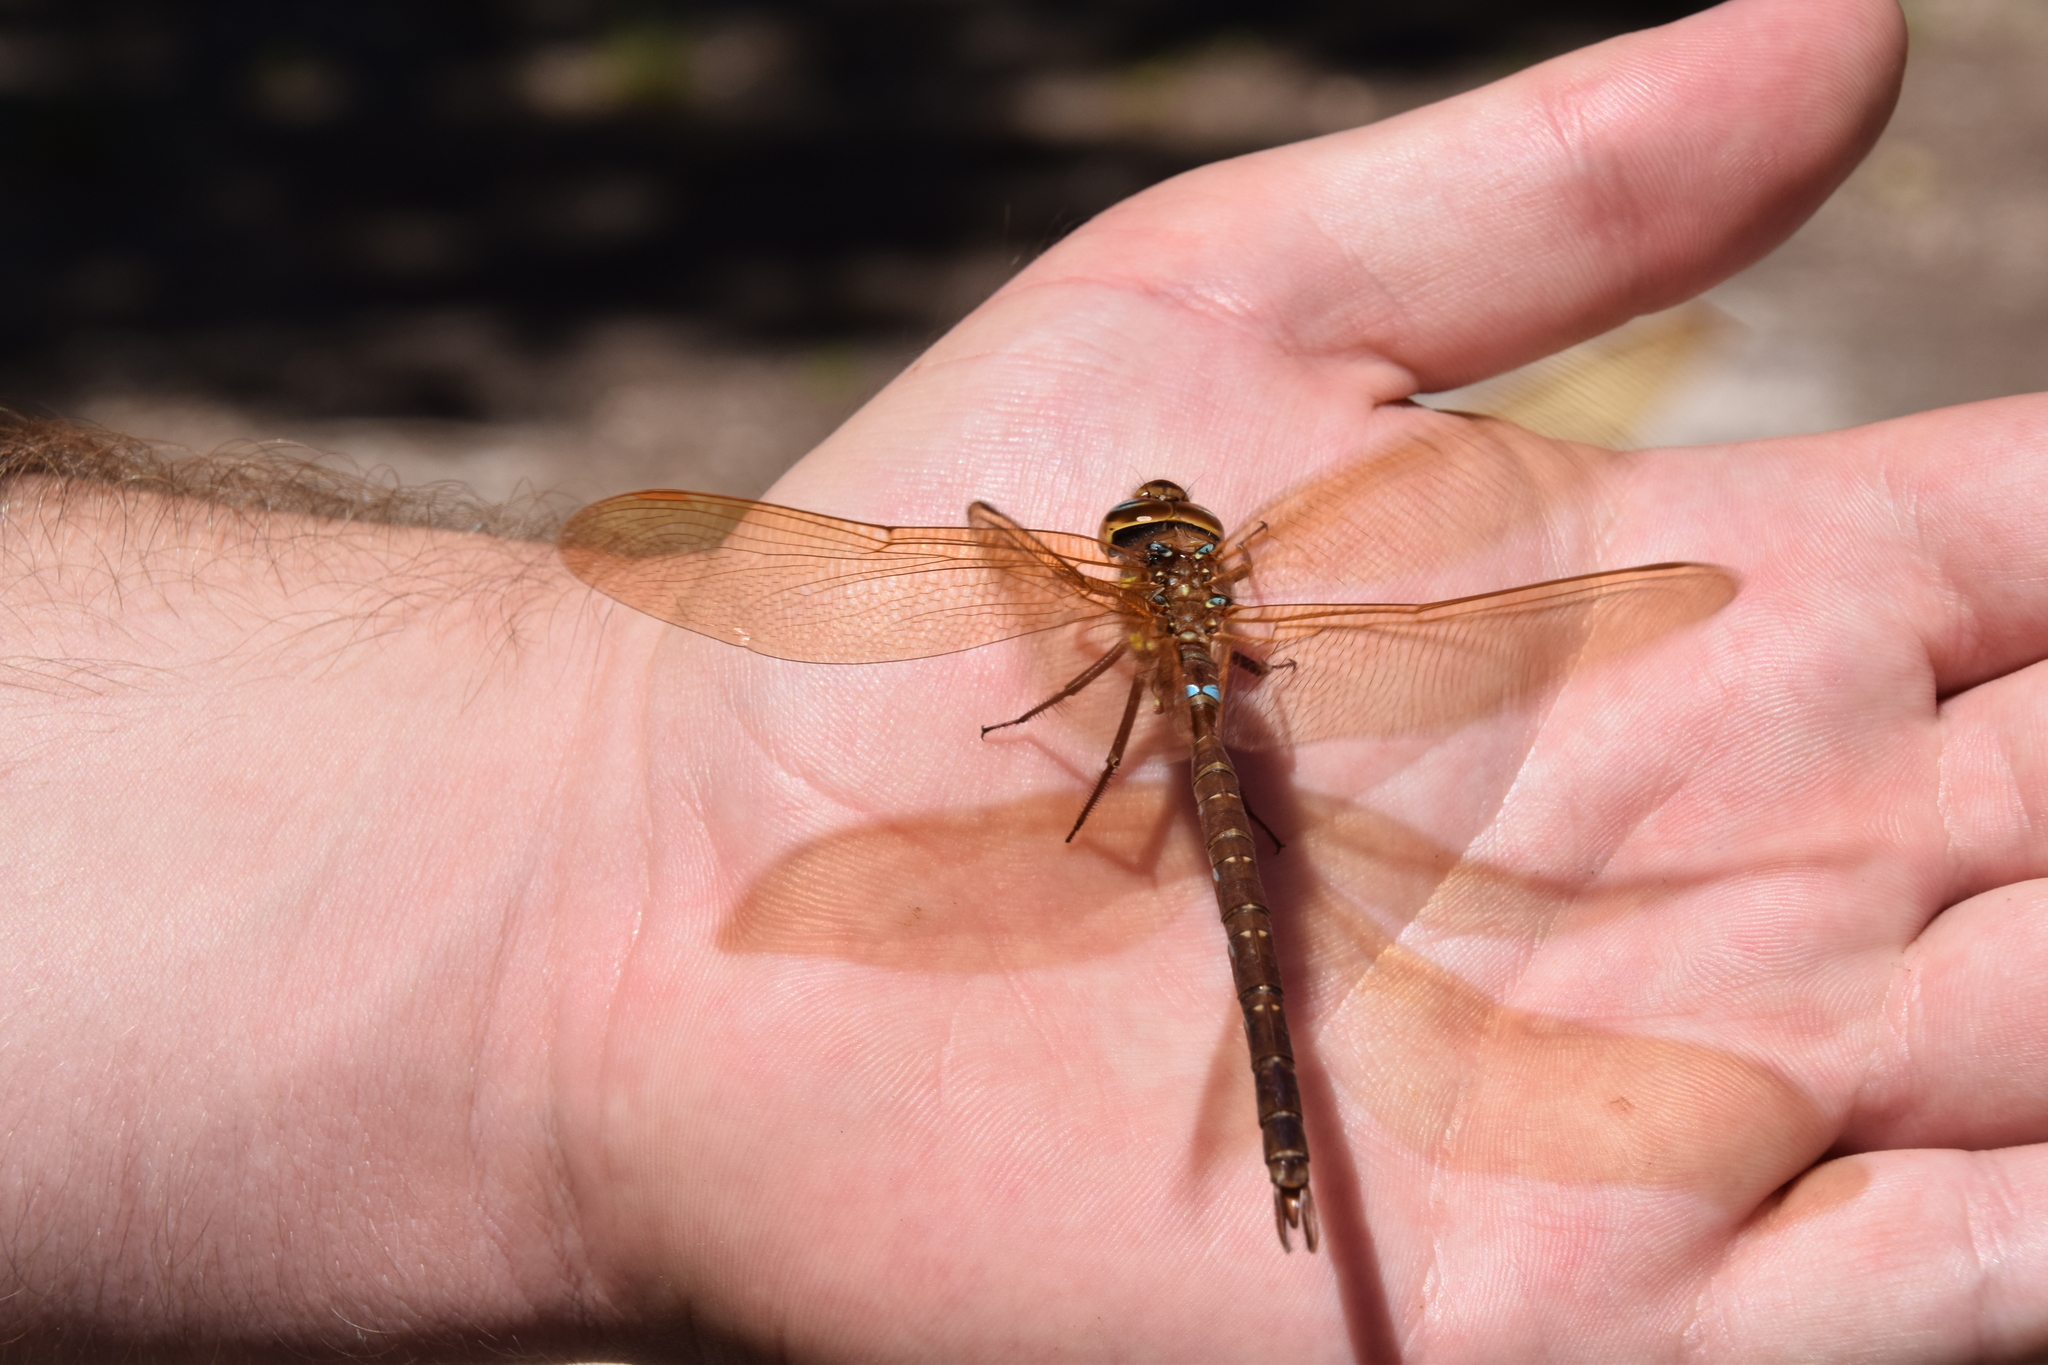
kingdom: Animalia
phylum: Arthropoda
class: Insecta
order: Odonata
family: Aeshnidae
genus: Aeshna
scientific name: Aeshna grandis
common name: Brown hawker
